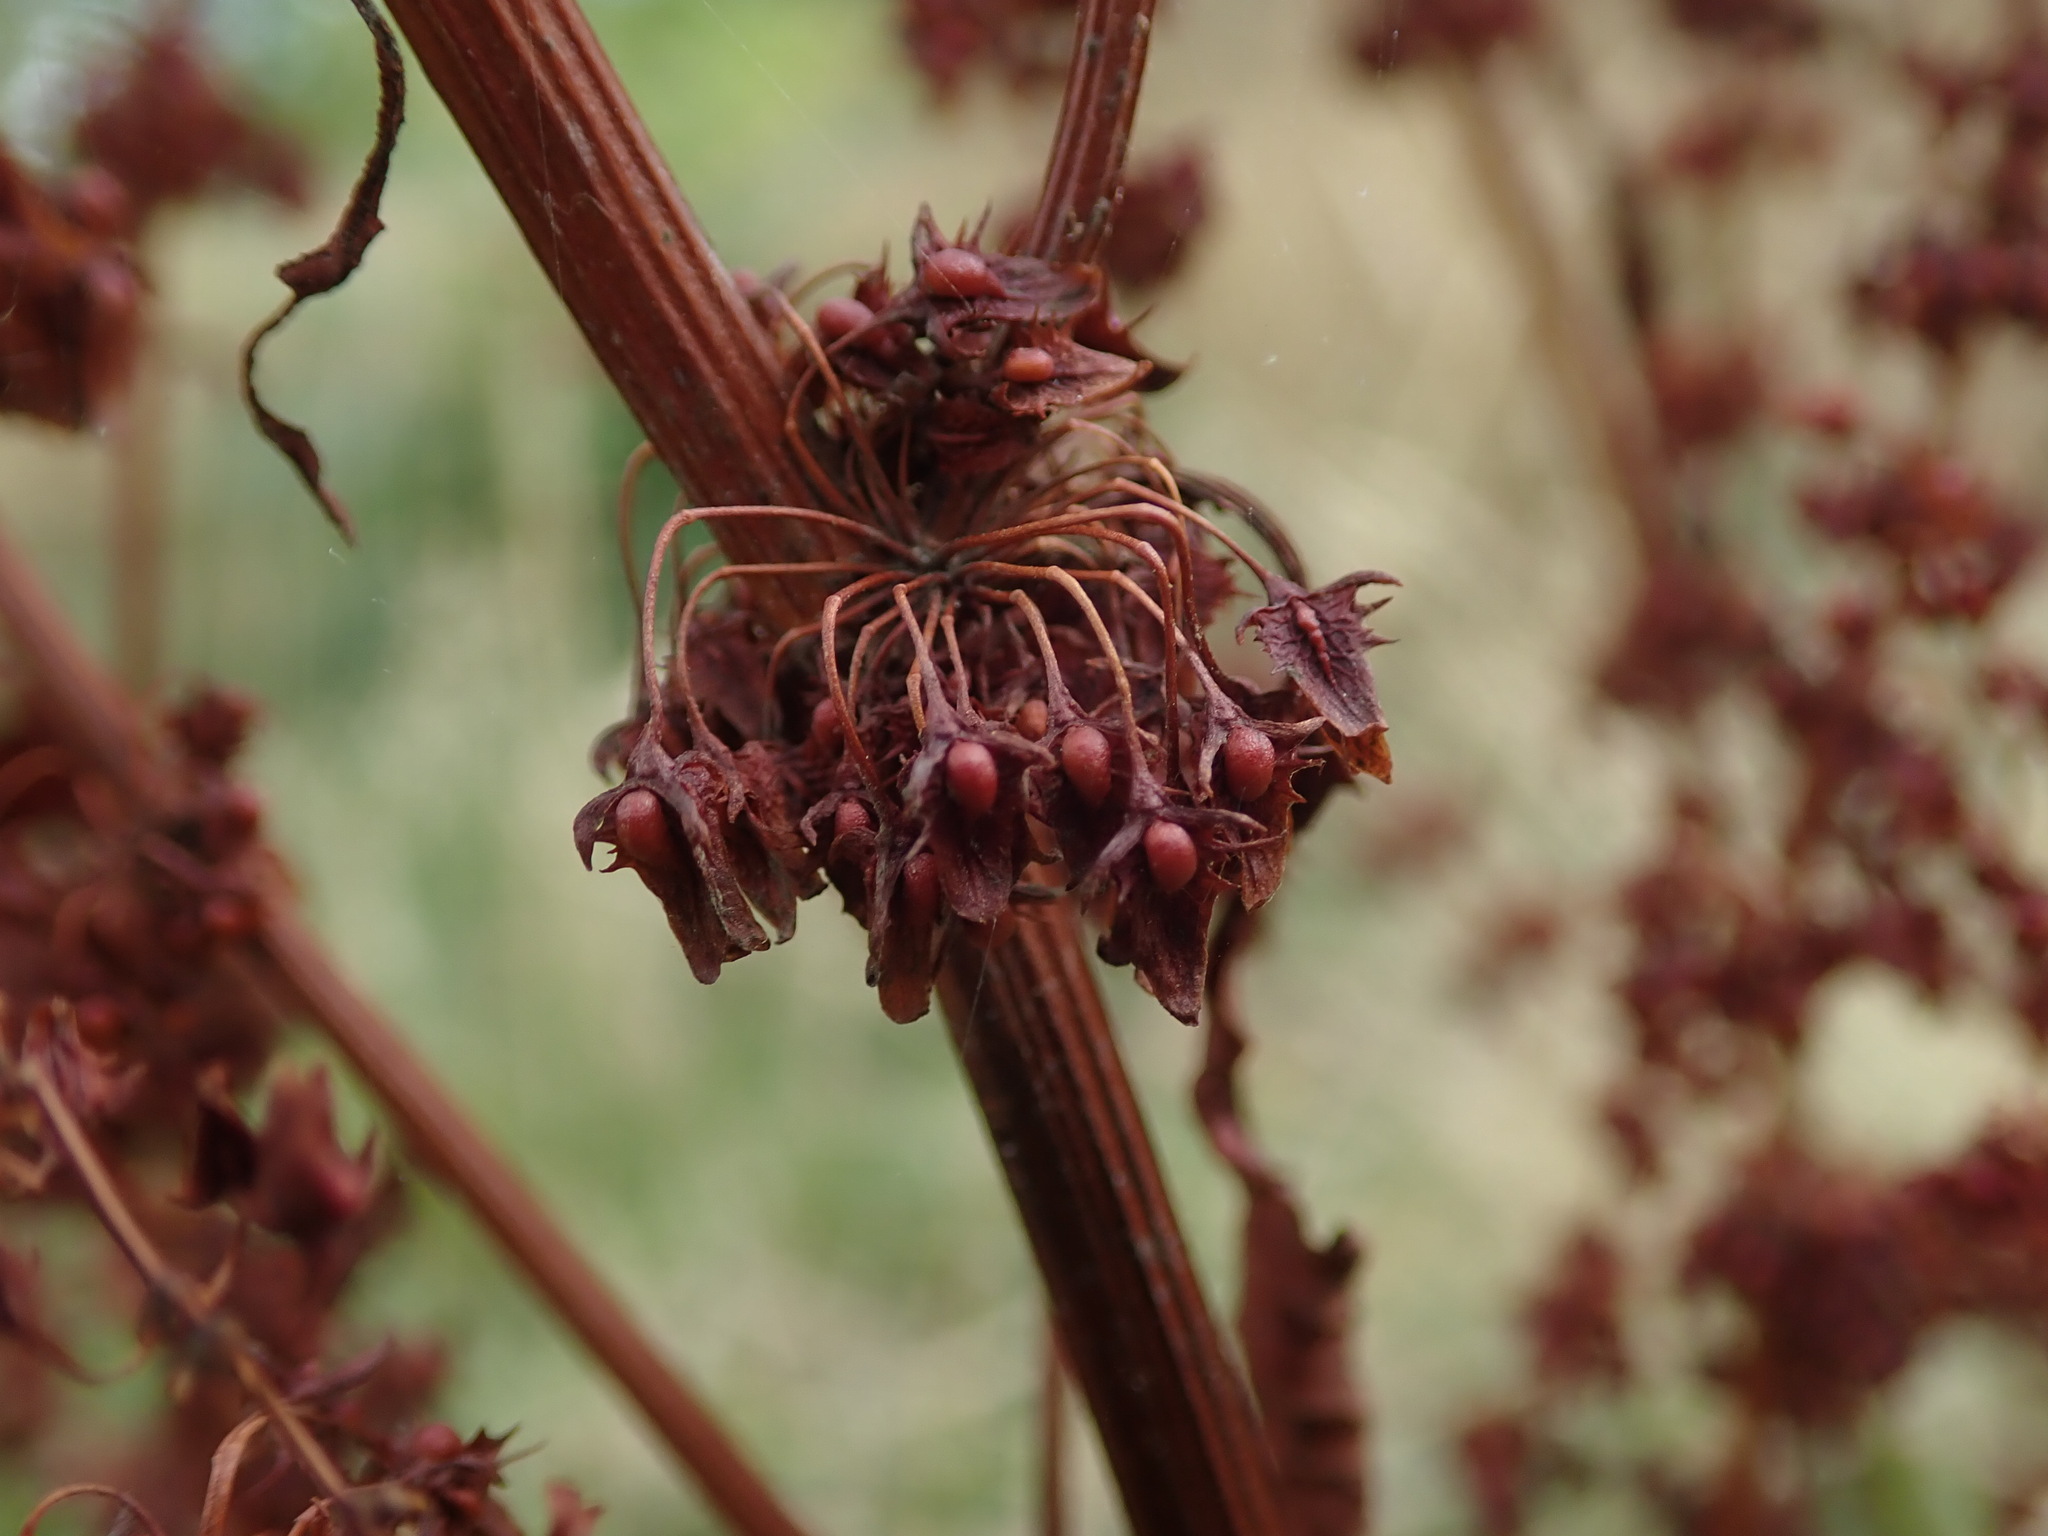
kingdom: Plantae
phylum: Tracheophyta
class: Magnoliopsida
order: Caryophyllales
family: Polygonaceae
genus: Rumex
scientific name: Rumex obtusifolius
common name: Bitter dock
